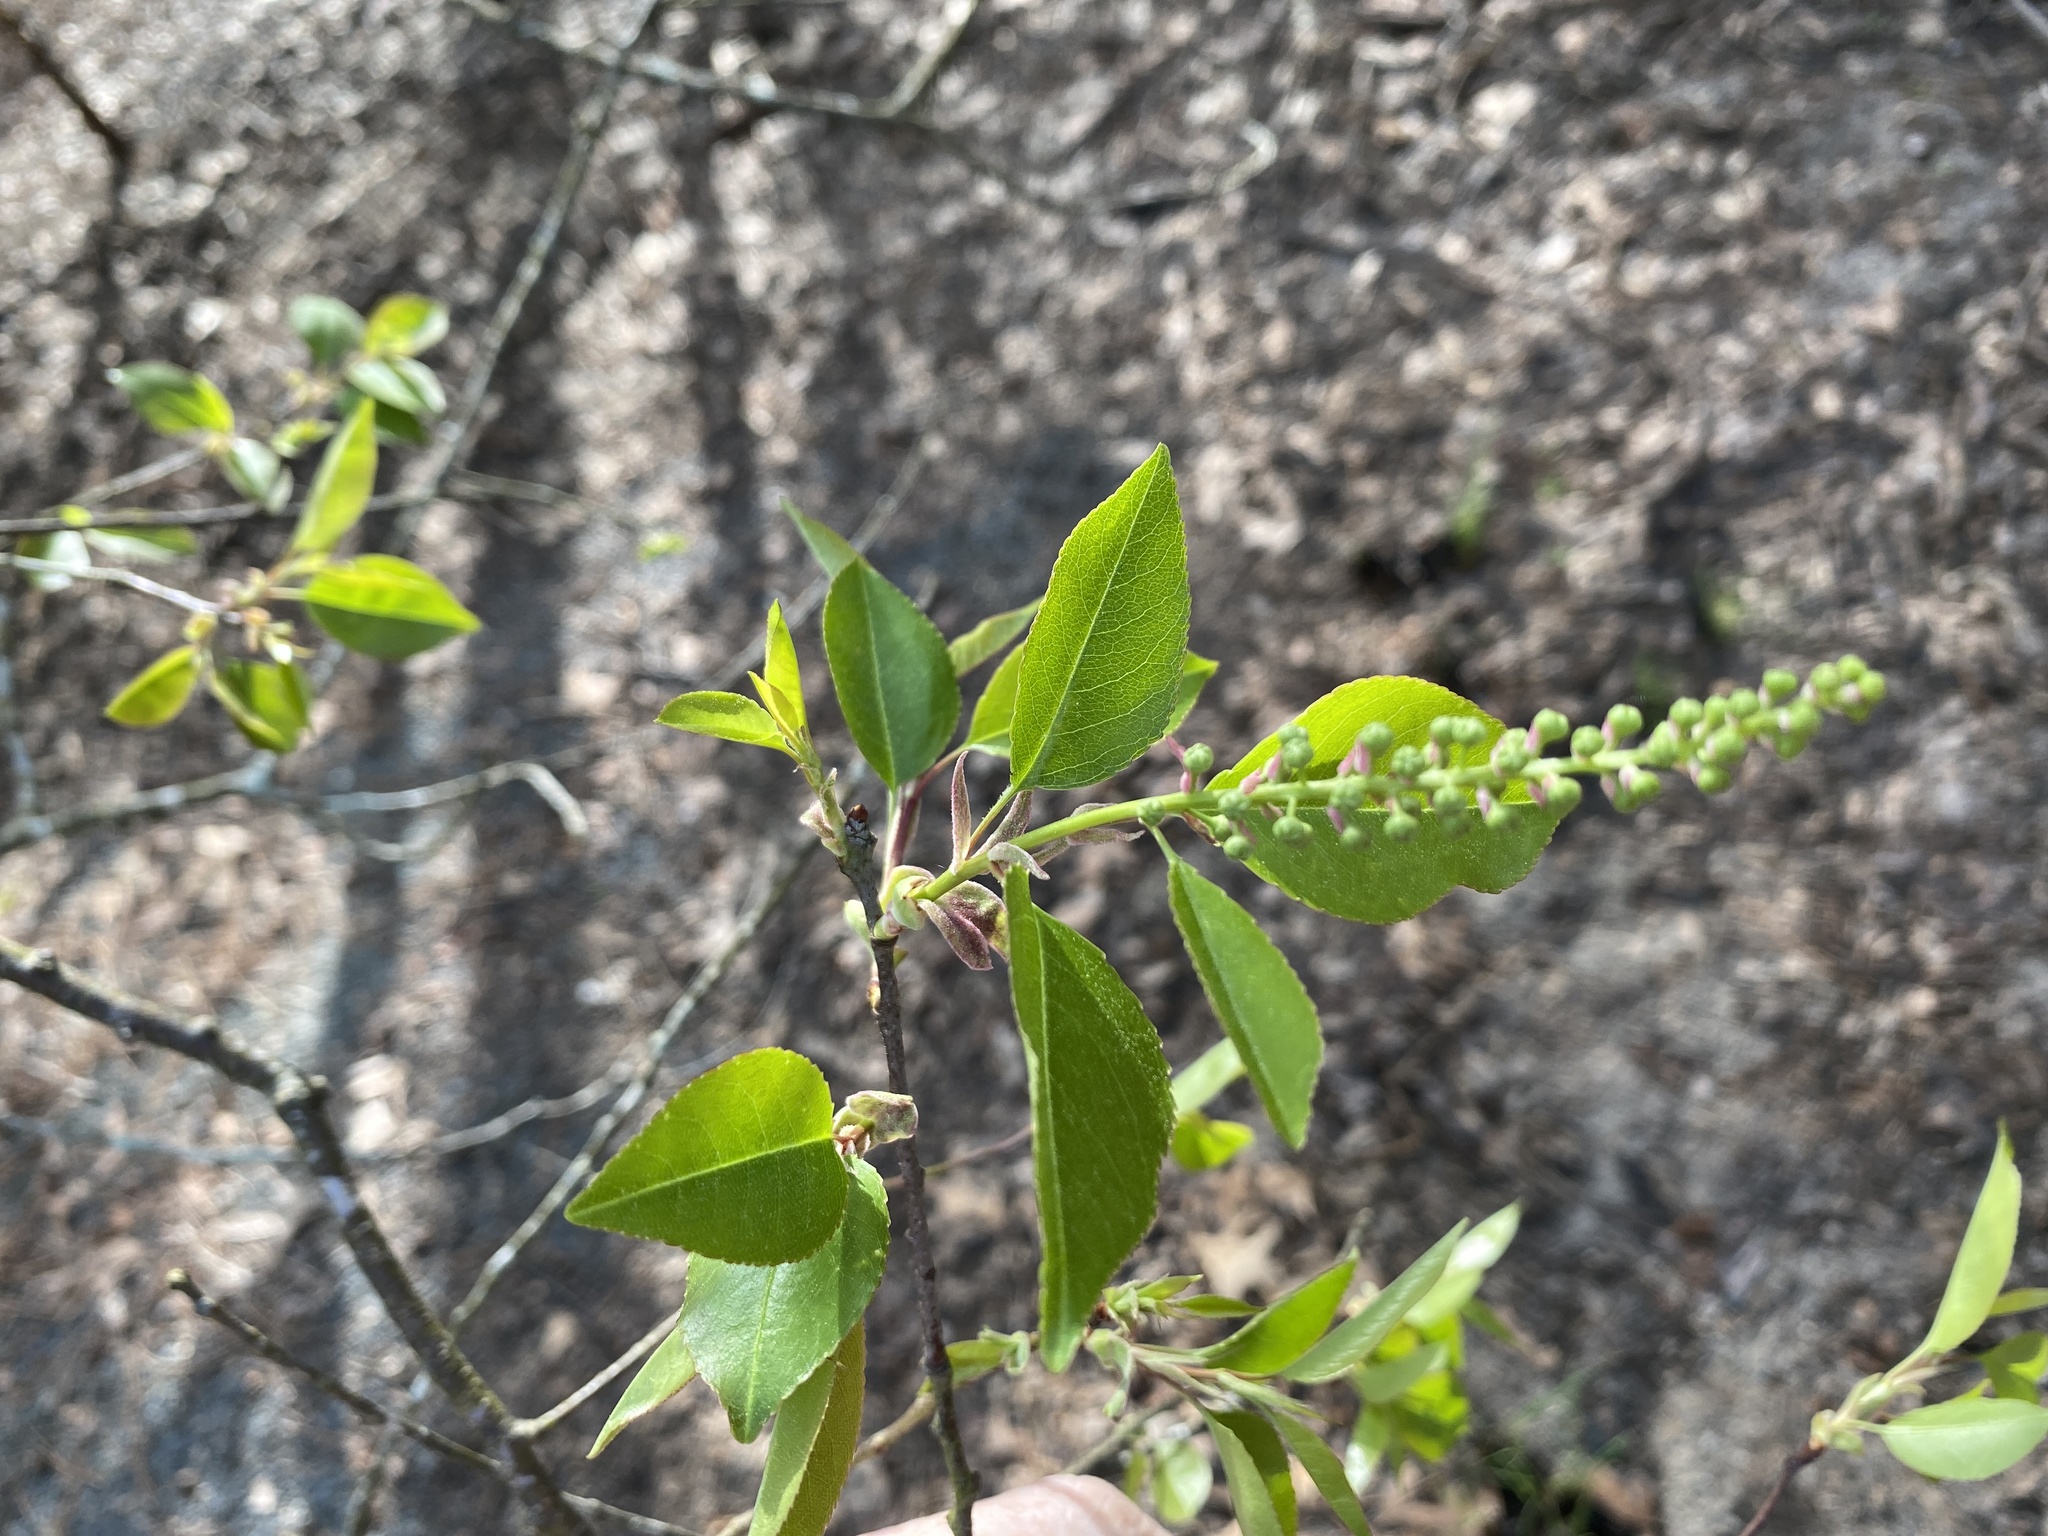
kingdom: Plantae
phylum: Tracheophyta
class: Magnoliopsida
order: Rosales
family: Rosaceae
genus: Prunus
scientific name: Prunus serotina
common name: Black cherry
